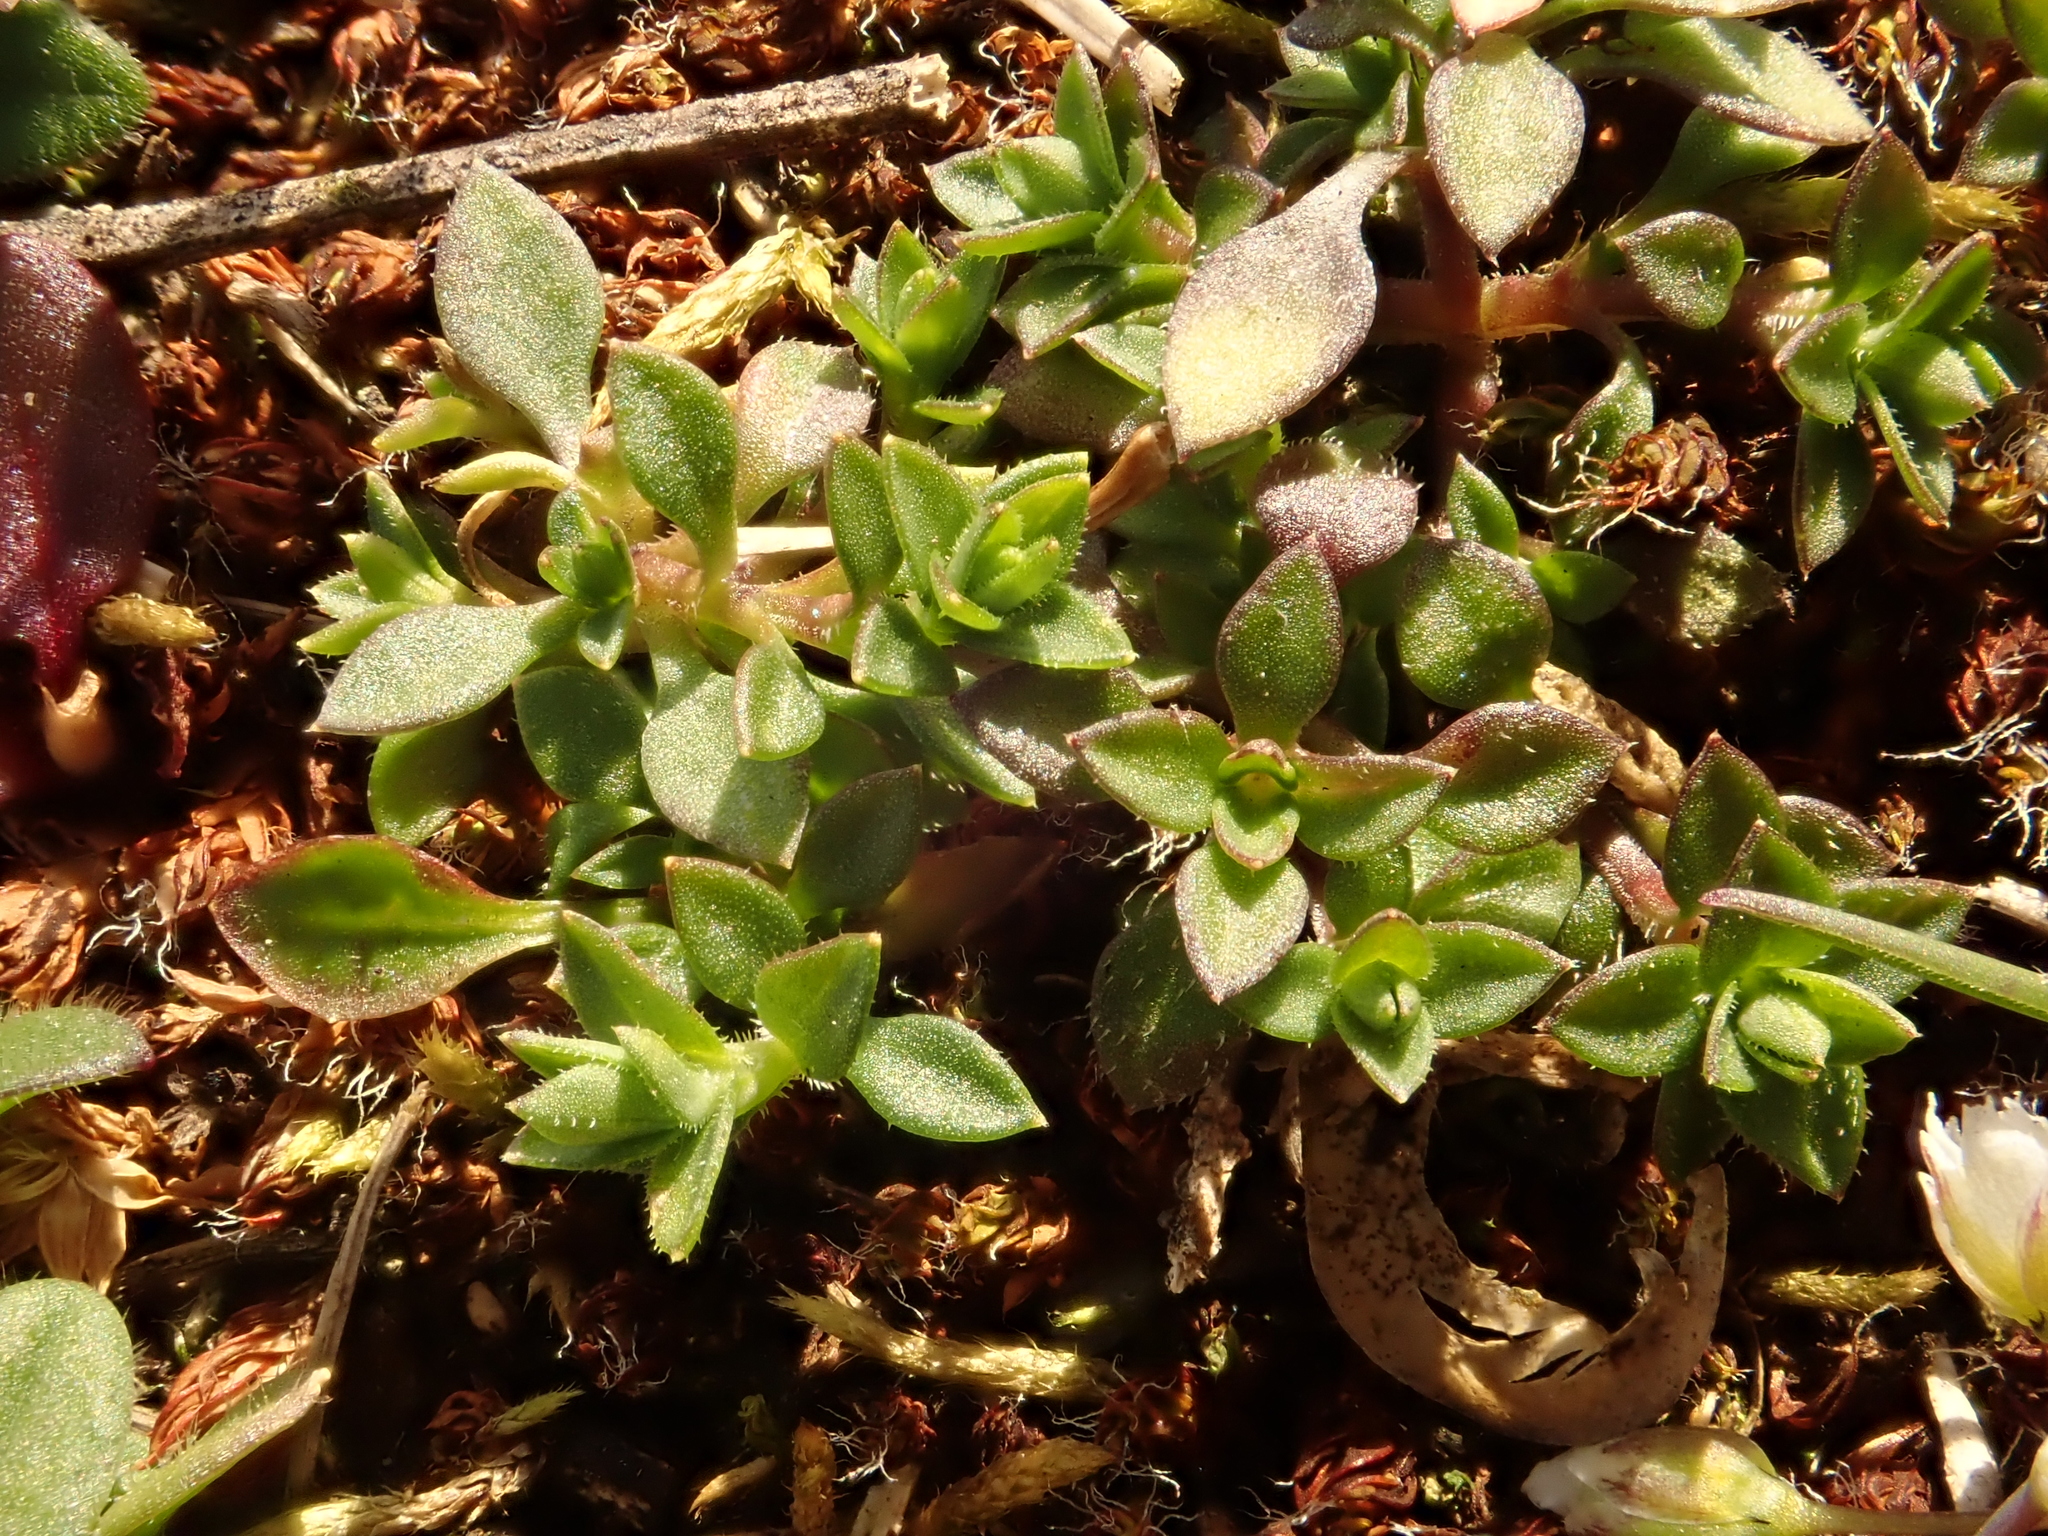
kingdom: Plantae
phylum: Tracheophyta
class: Magnoliopsida
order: Caryophyllales
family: Caryophyllaceae
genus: Arenaria
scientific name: Arenaria serpyllifolia
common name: Thyme-leaved sandwort
